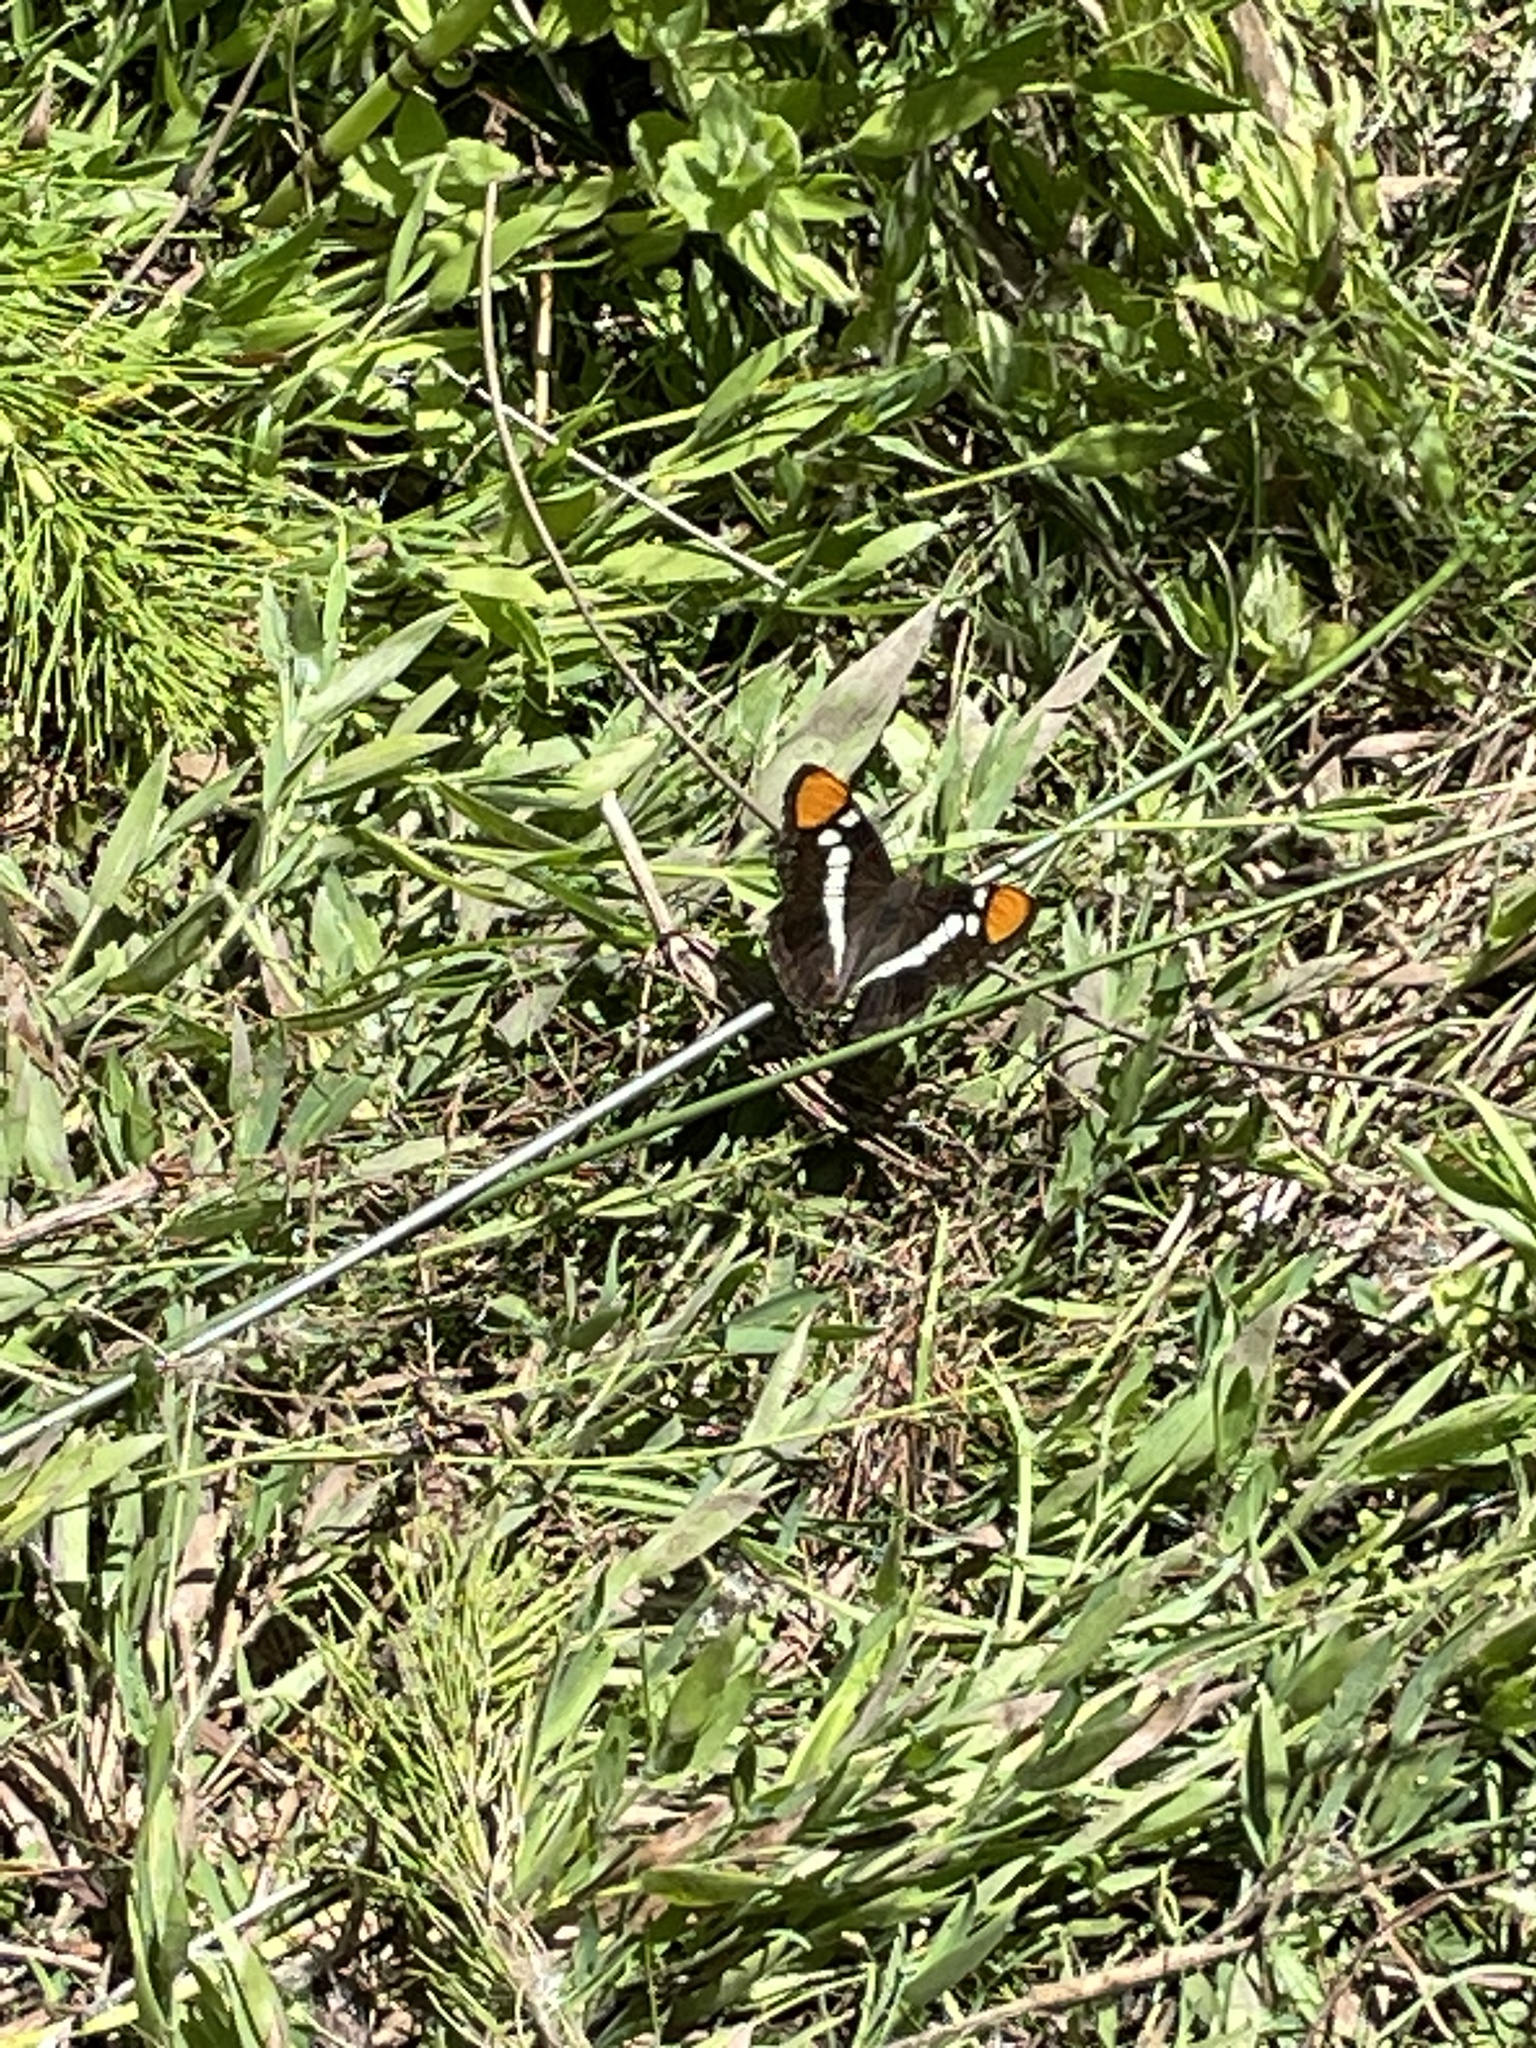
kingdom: Animalia
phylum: Arthropoda
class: Insecta
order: Lepidoptera
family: Nymphalidae
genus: Limenitis
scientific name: Limenitis bredowii
